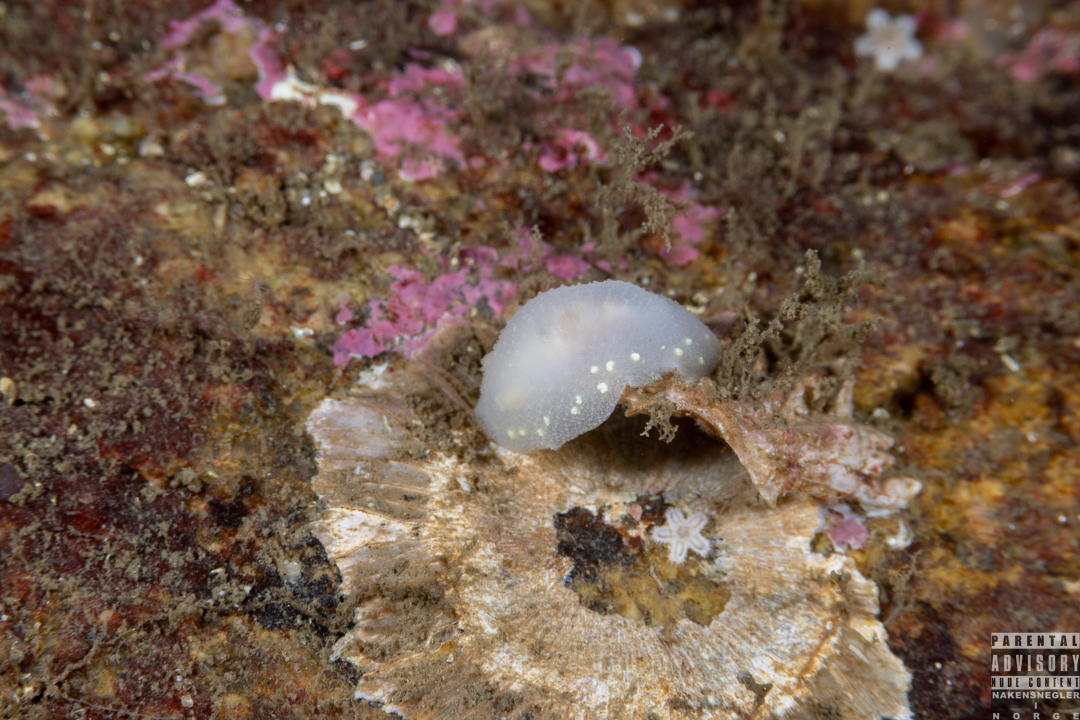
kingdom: Animalia
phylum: Mollusca
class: Gastropoda
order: Nudibranchia
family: Cadlinidae
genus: Cadlina
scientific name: Cadlina laevis
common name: White atlantic cadlina
